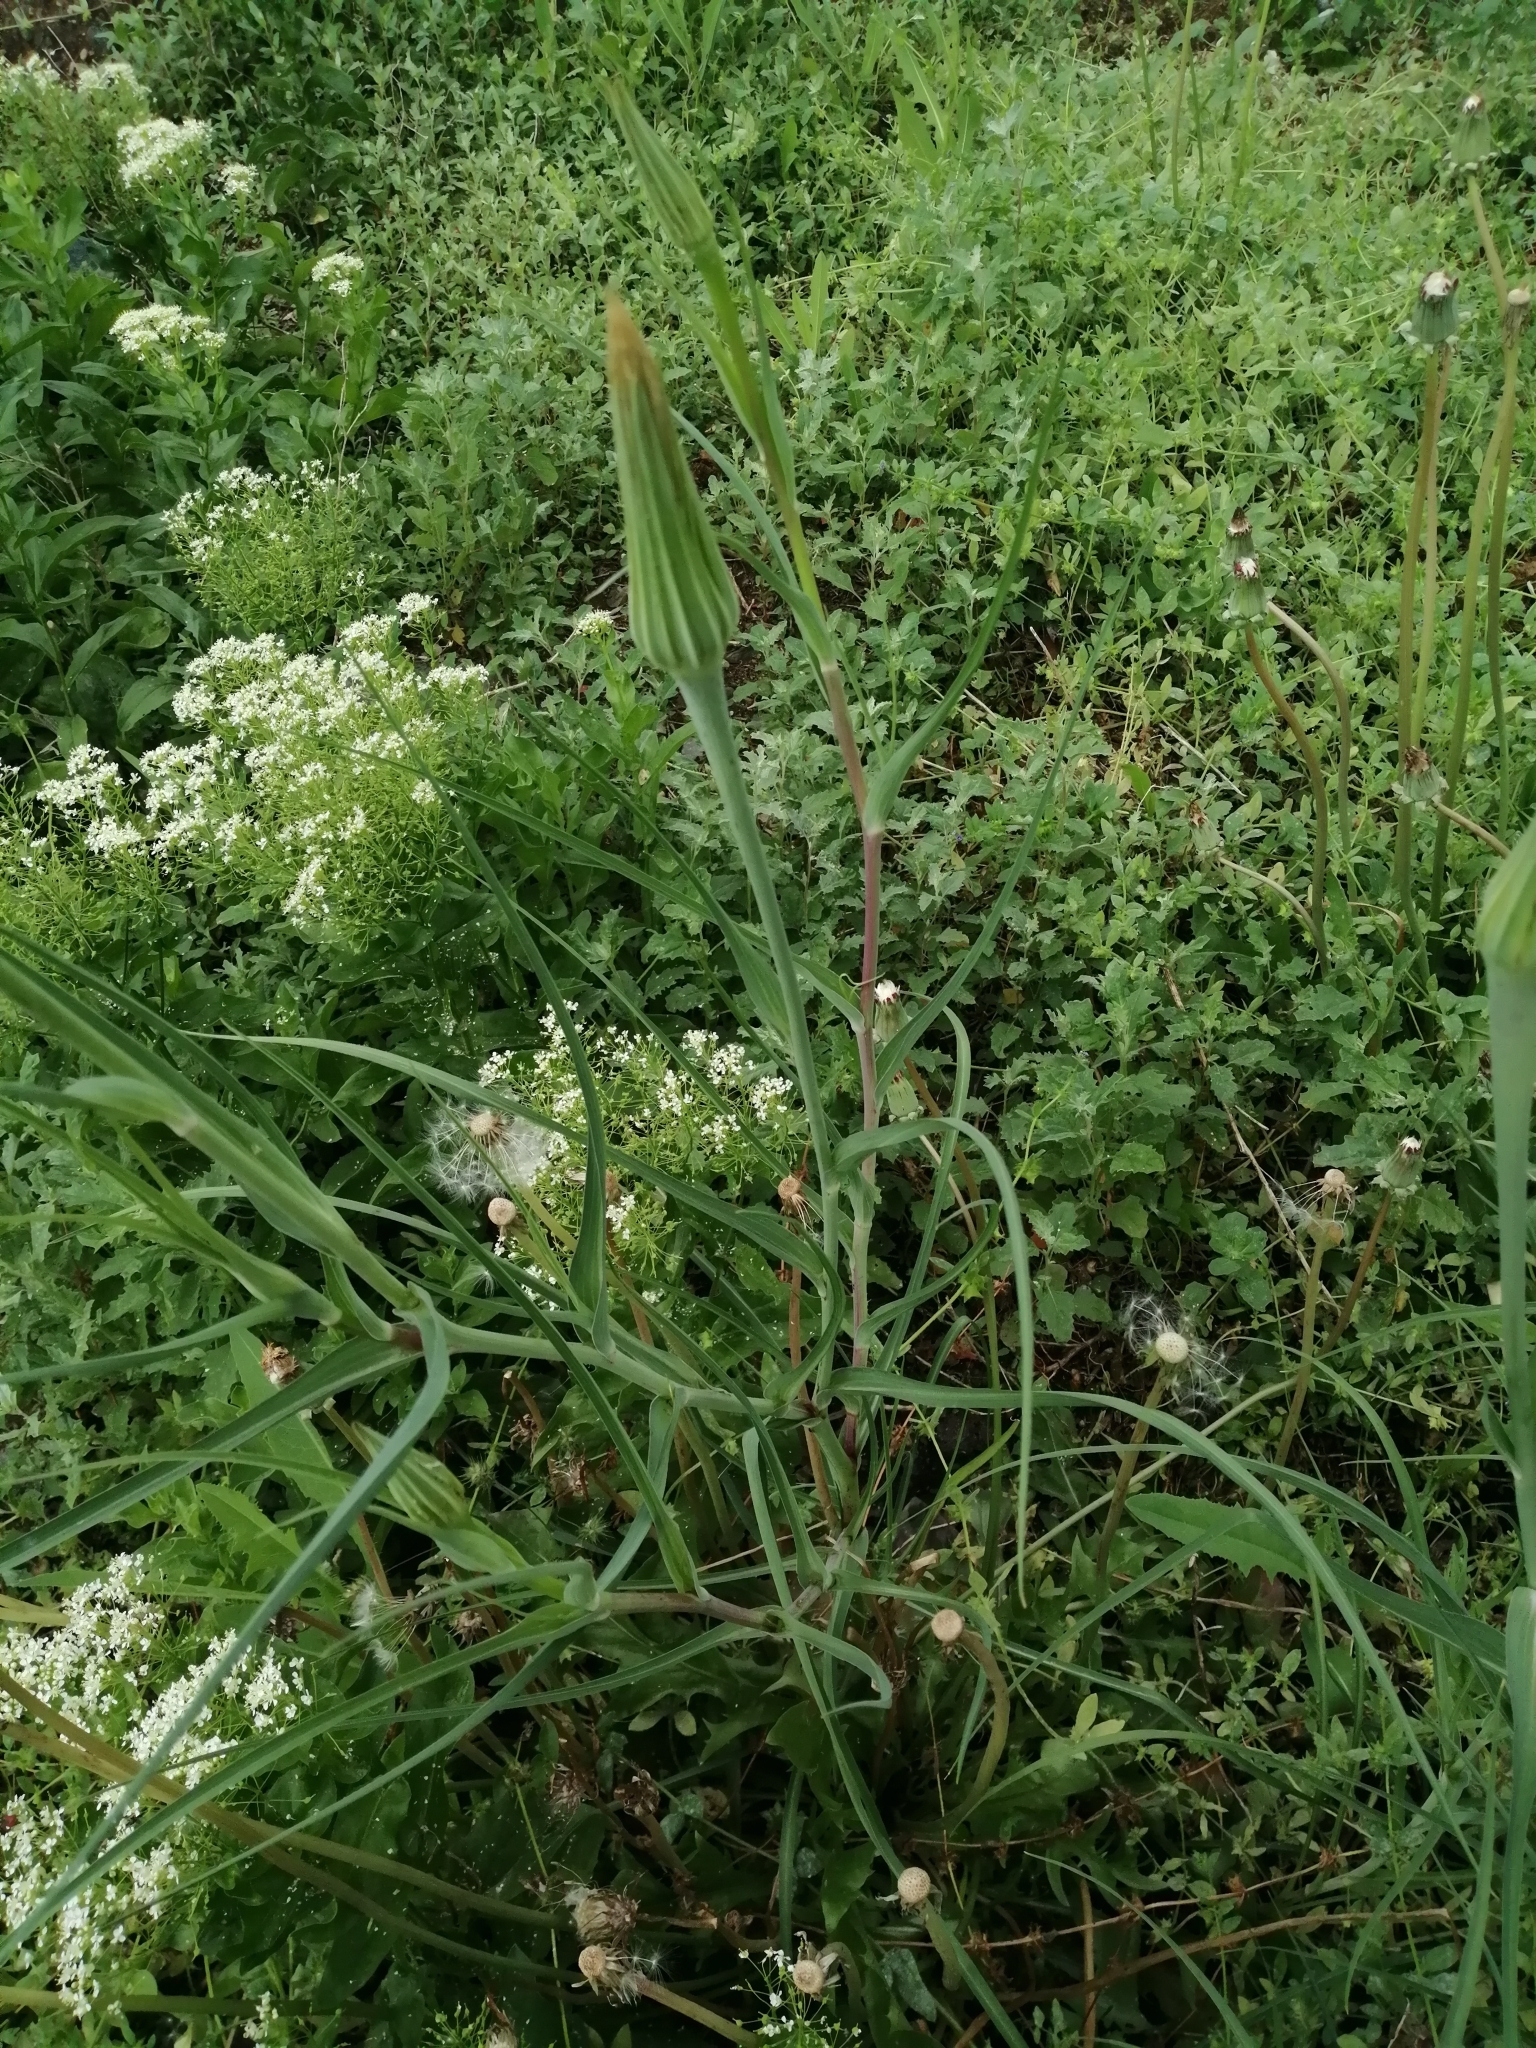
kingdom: Plantae
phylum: Tracheophyta
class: Magnoliopsida
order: Asterales
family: Asteraceae
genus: Tragopogon
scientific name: Tragopogon dubius
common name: Yellow salsify
